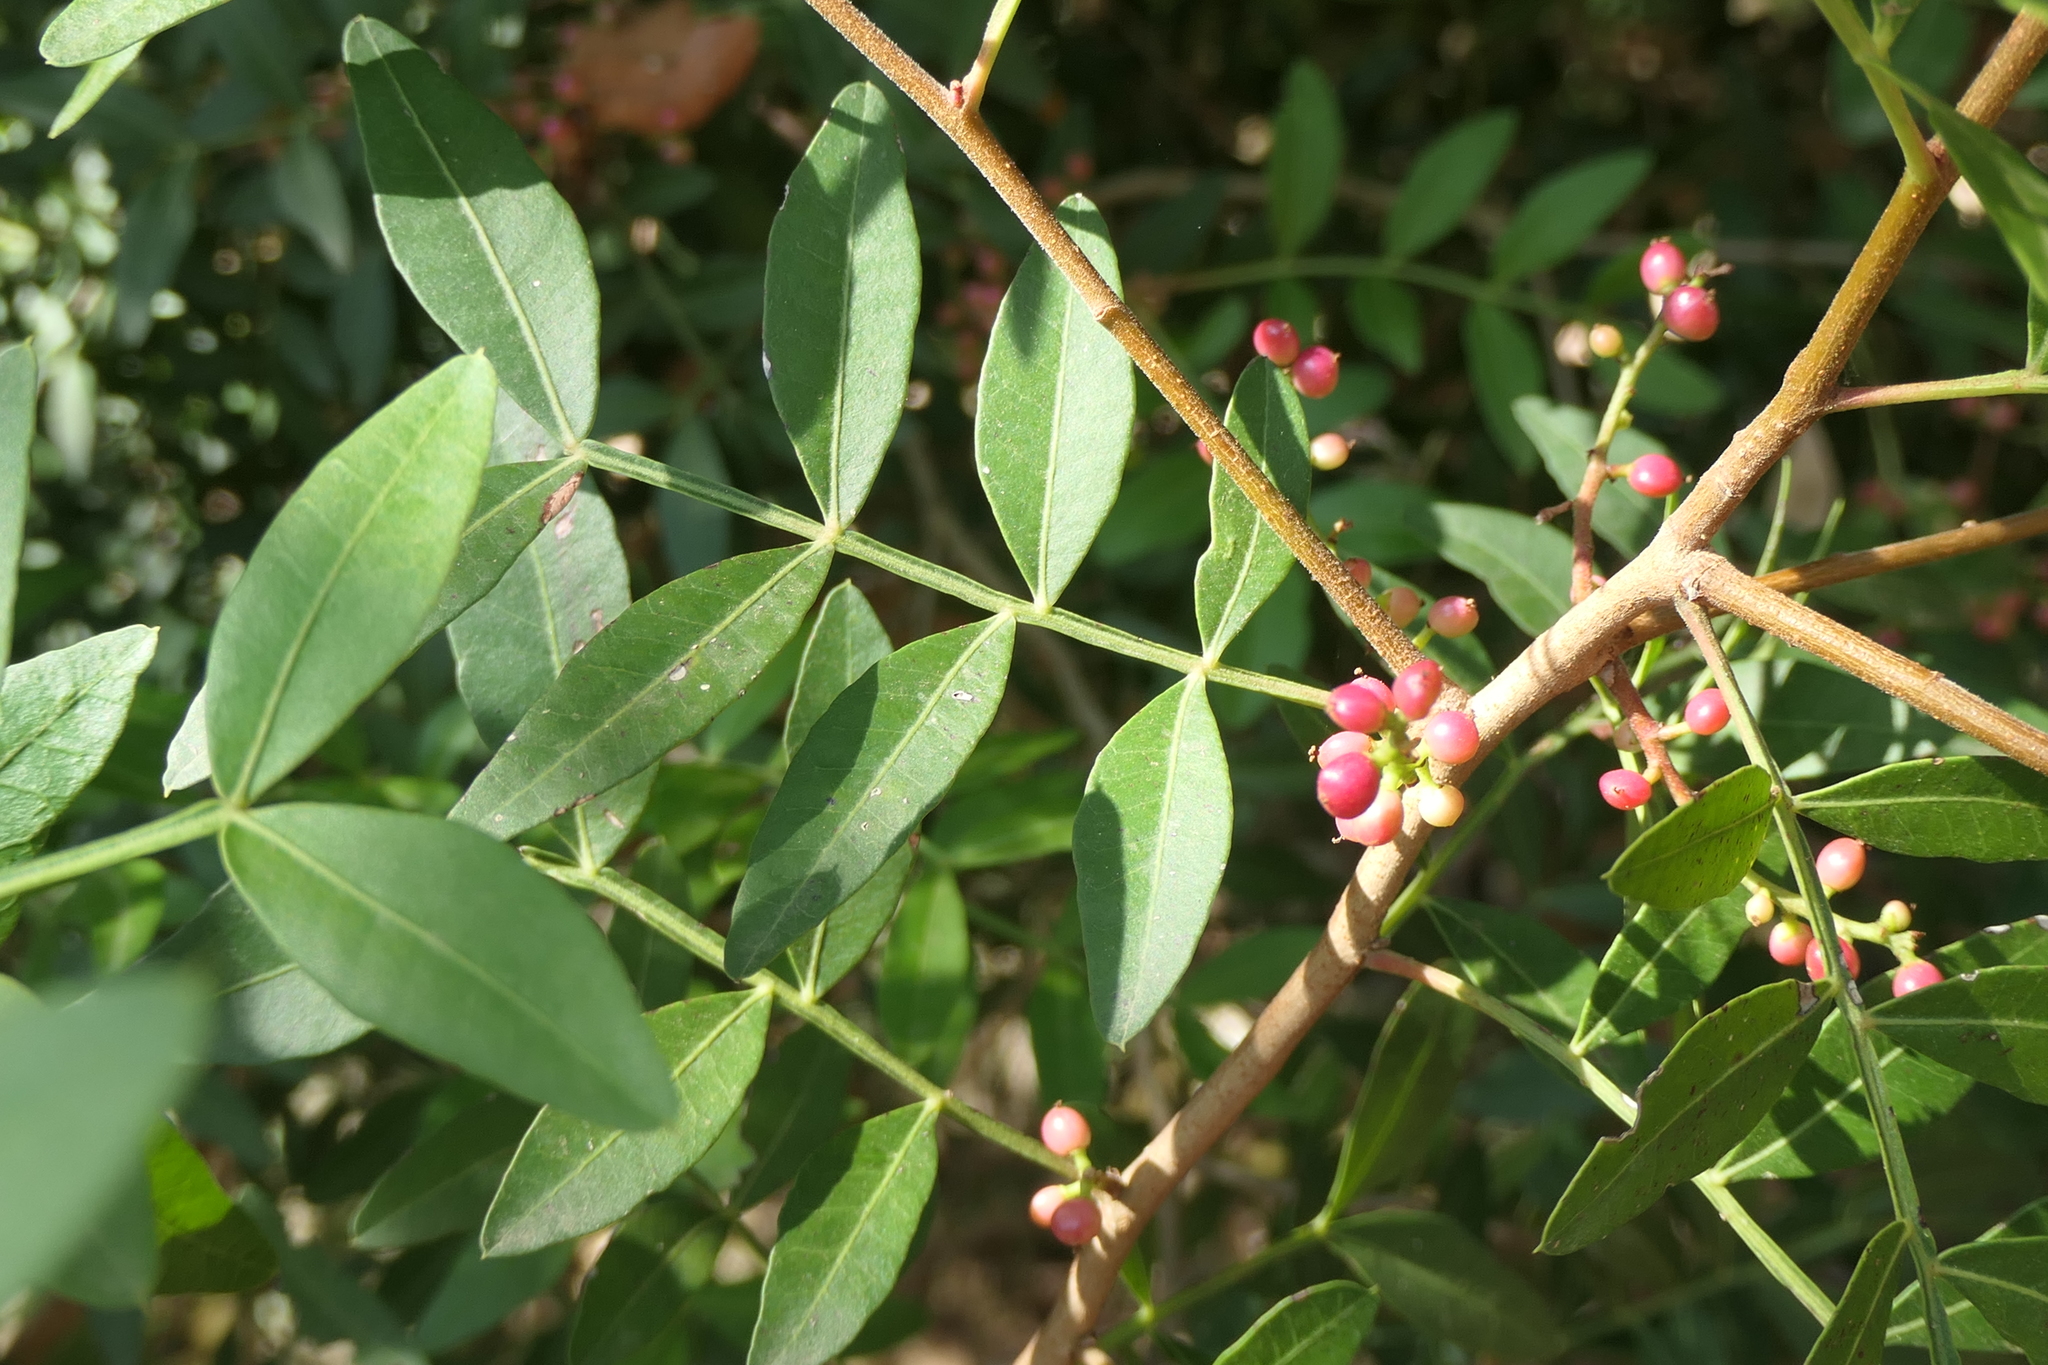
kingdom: Plantae
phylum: Tracheophyta
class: Magnoliopsida
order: Sapindales
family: Anacardiaceae
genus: Pistacia
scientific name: Pistacia lentiscus
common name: Lentisk
